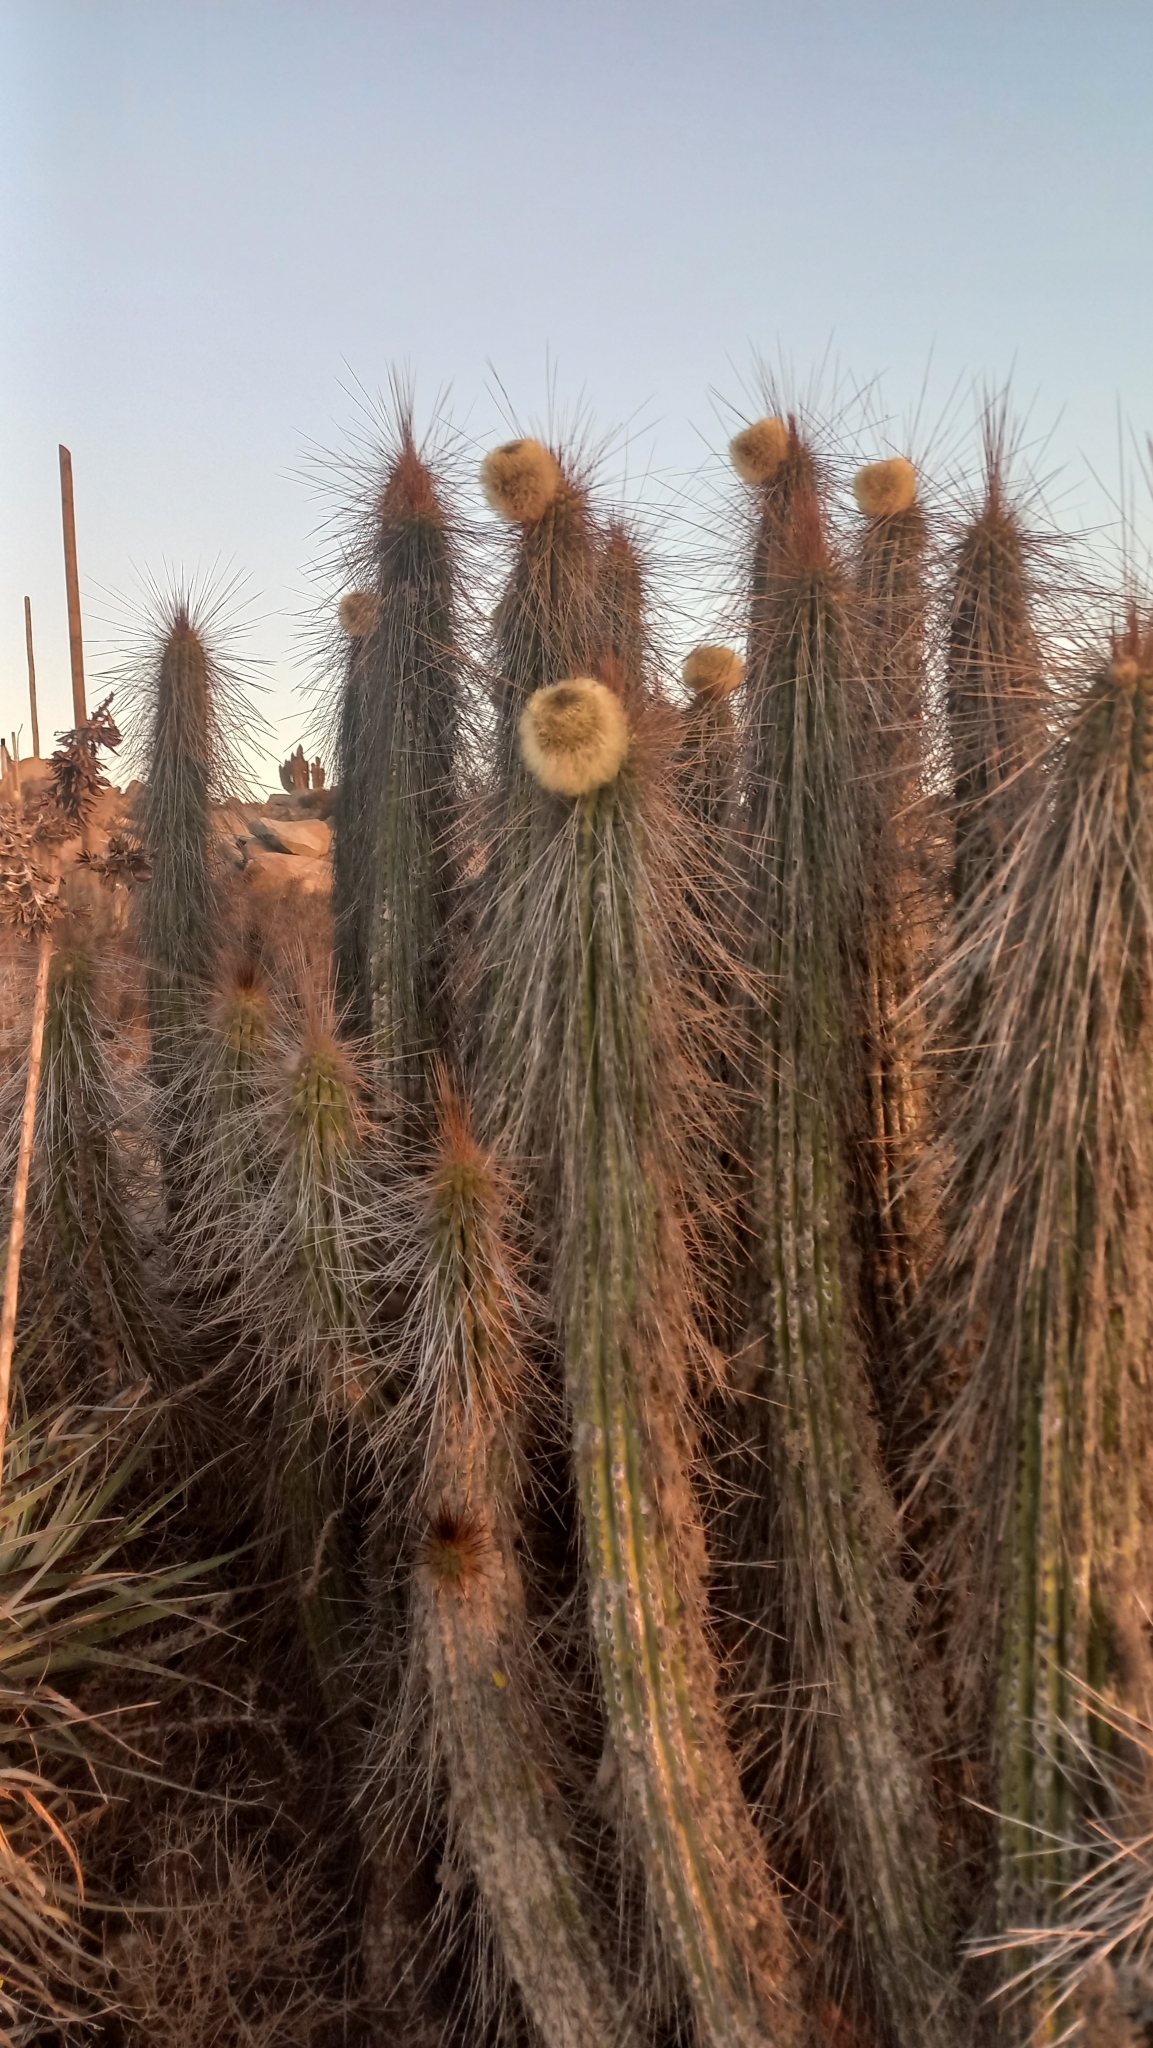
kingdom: Plantae
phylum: Tracheophyta
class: Magnoliopsida
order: Caryophyllales
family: Cactaceae
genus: Eulychnia
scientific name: Eulychnia breviflora
